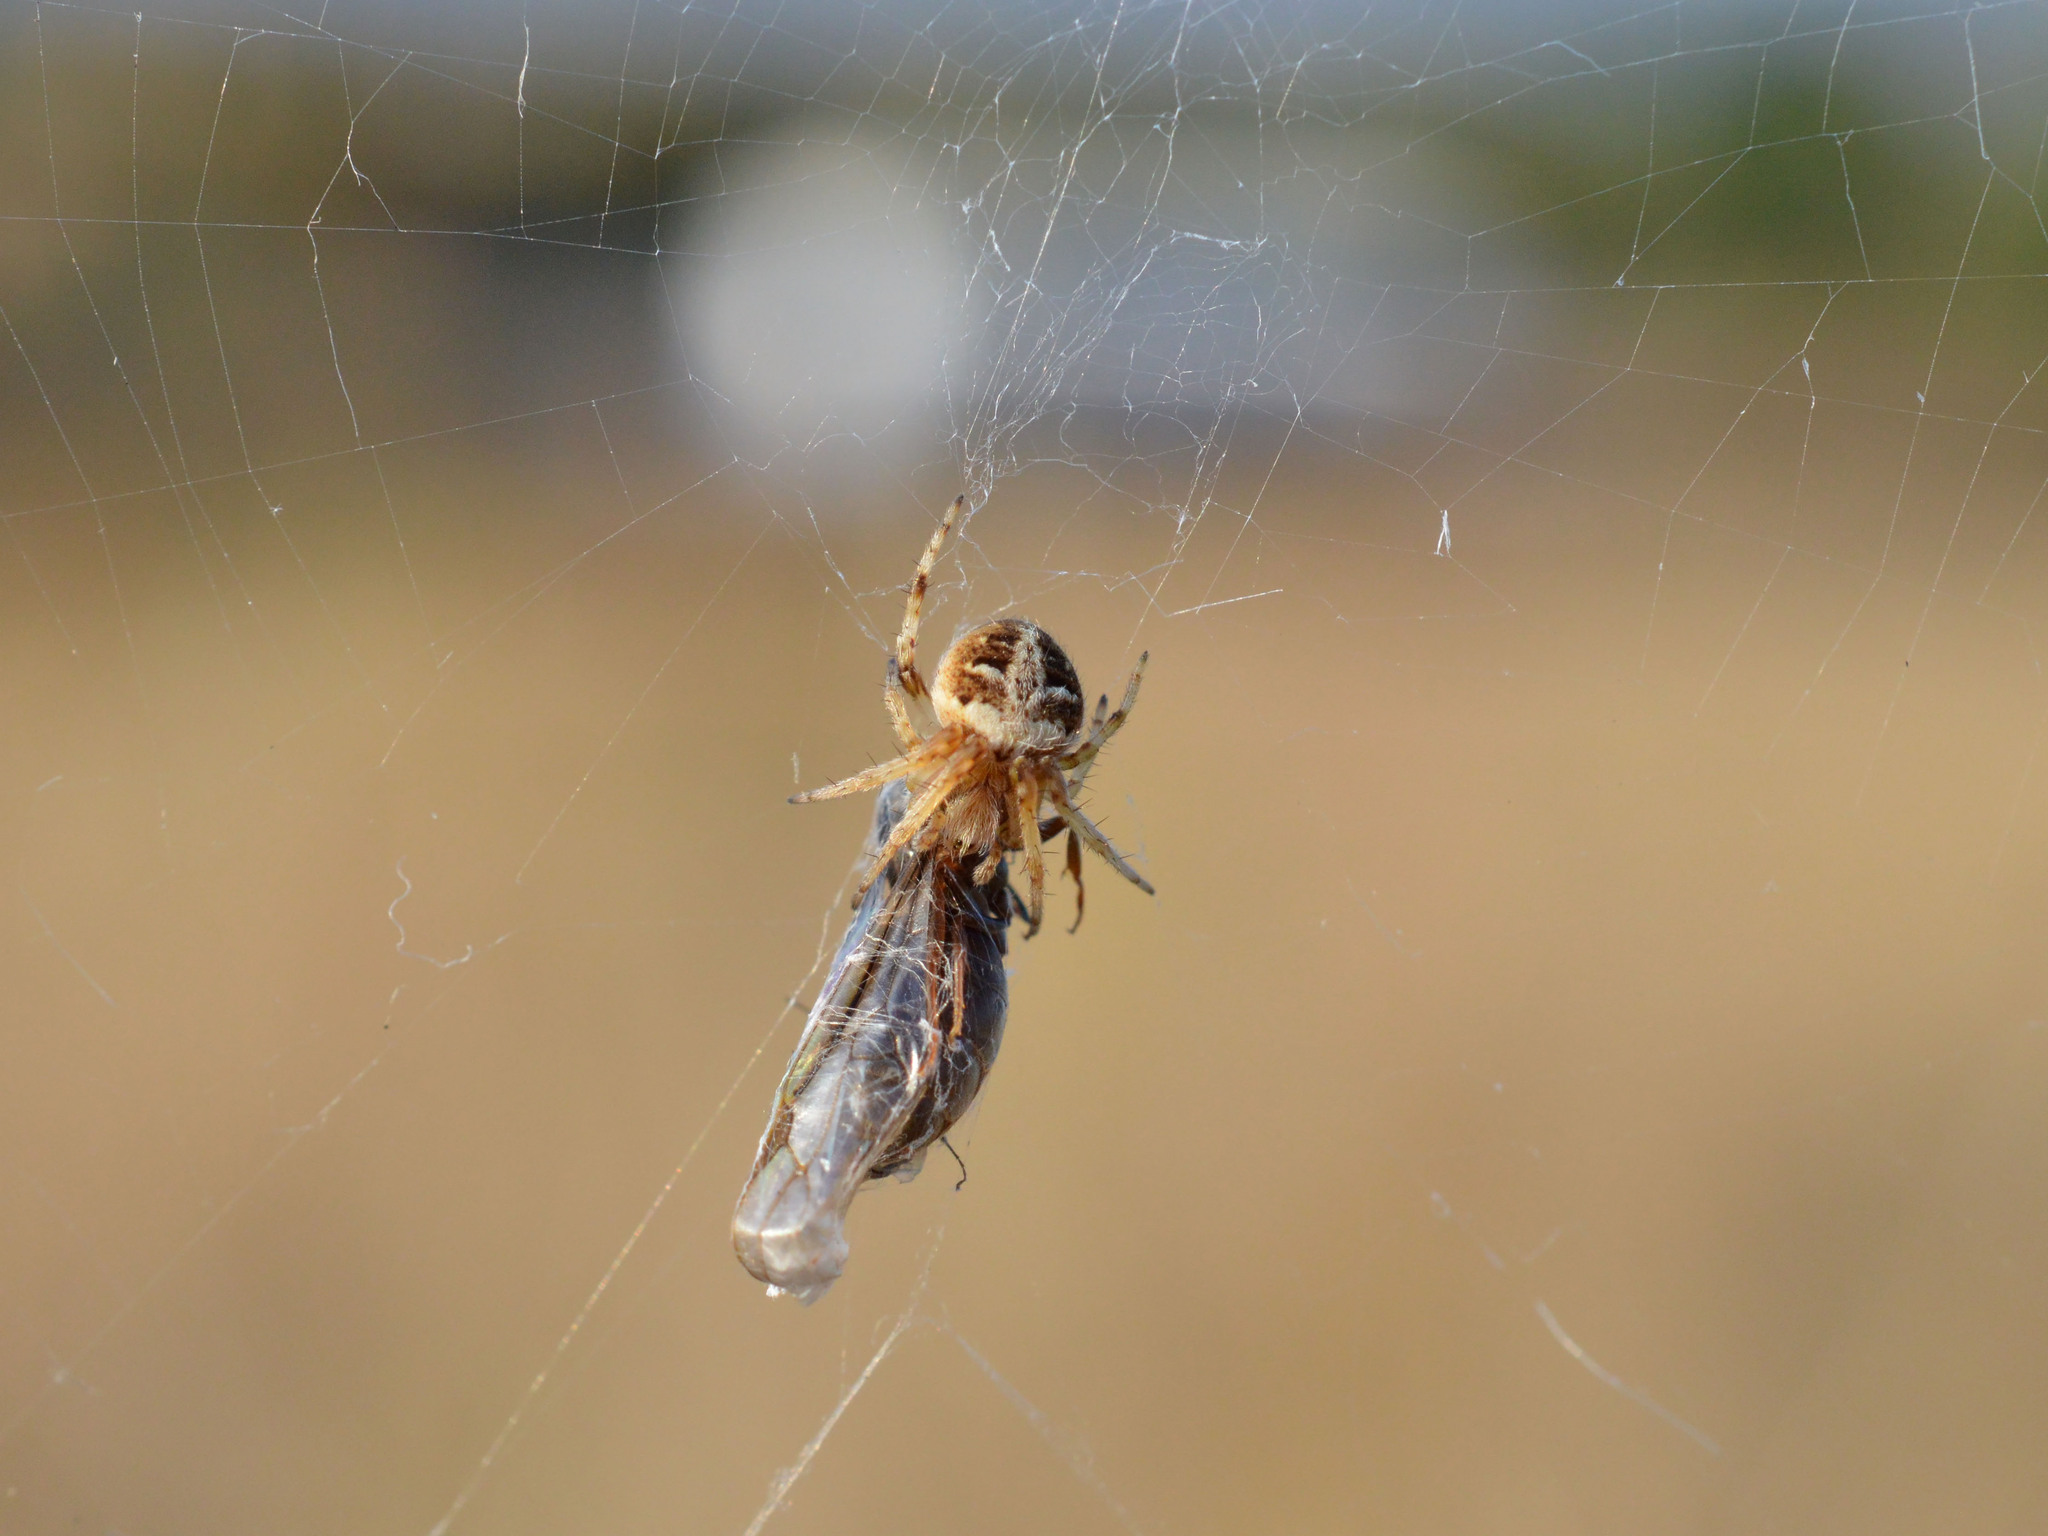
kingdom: Animalia
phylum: Arthropoda
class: Arachnida
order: Araneae
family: Araneidae
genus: Agalenatea
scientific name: Agalenatea redii
